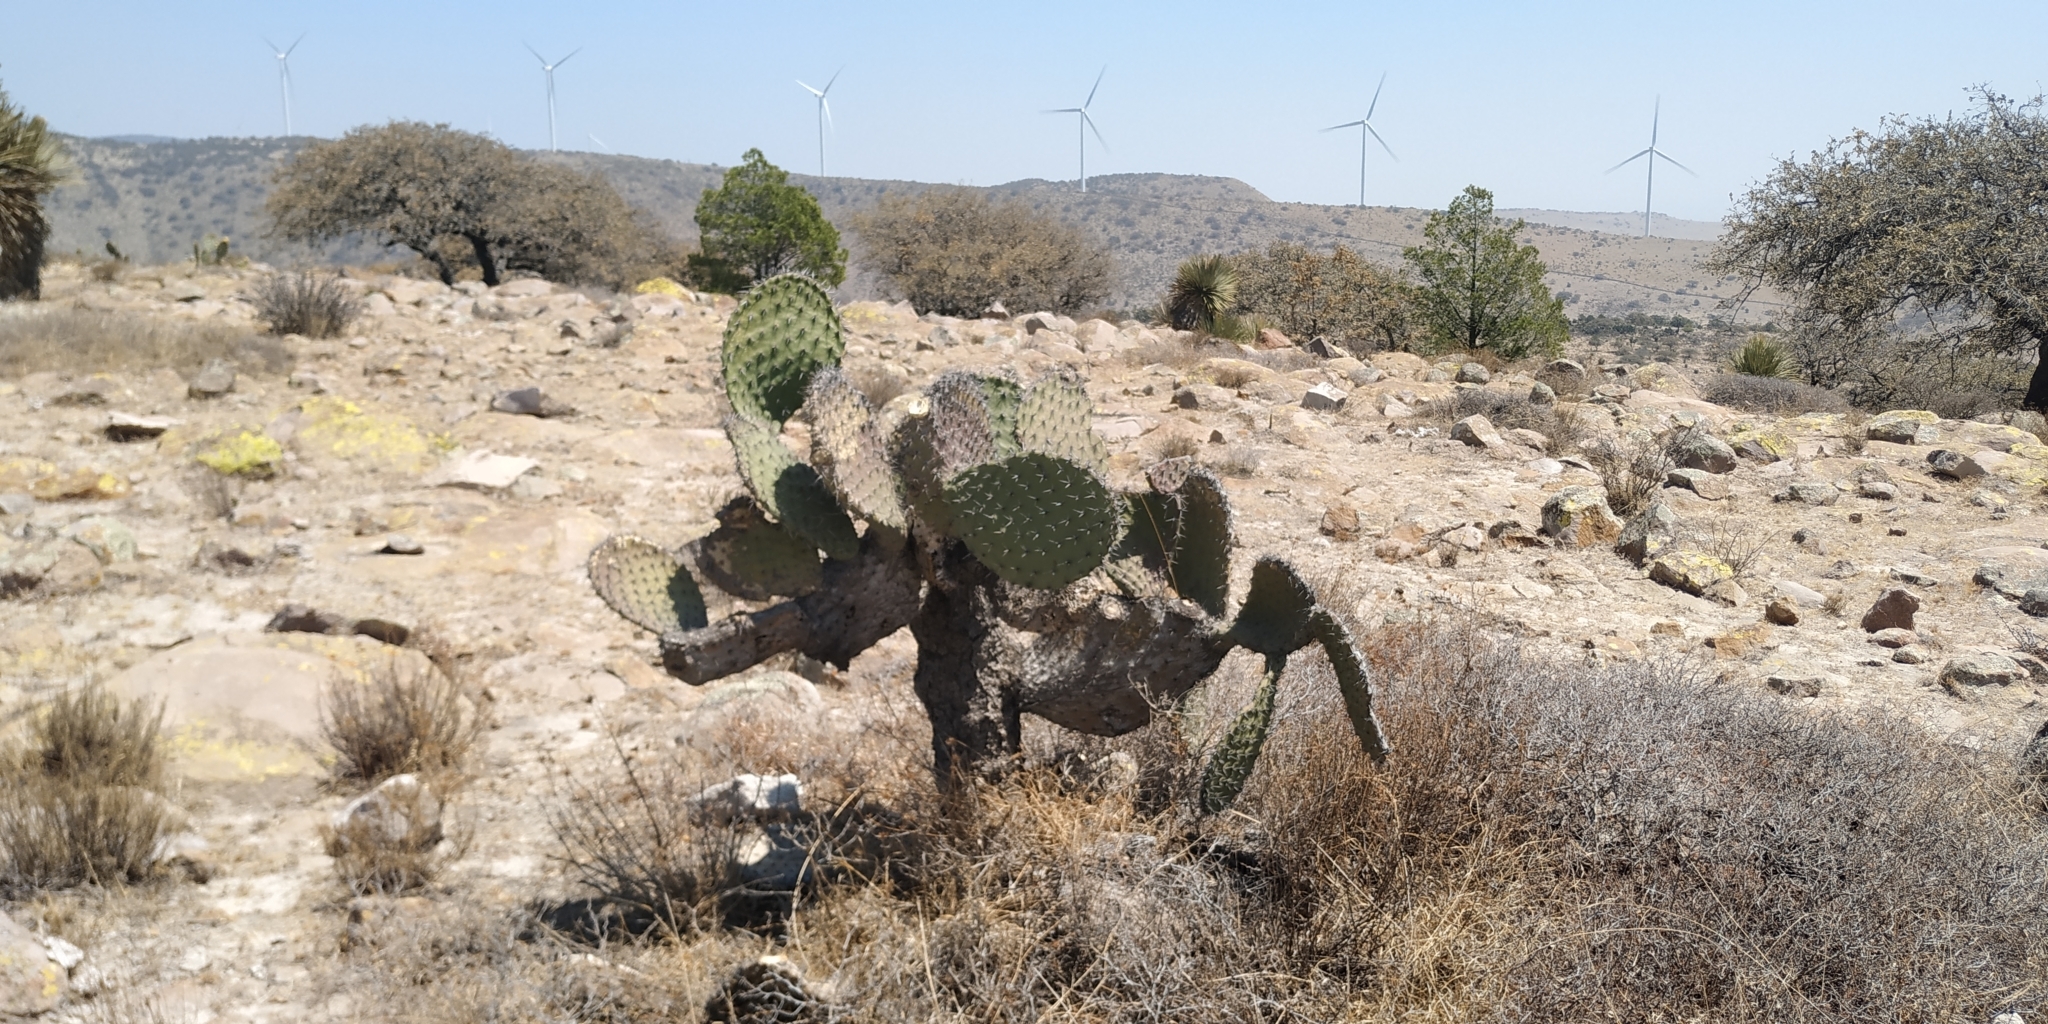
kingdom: Plantae
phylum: Tracheophyta
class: Magnoliopsida
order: Caryophyllales
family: Cactaceae
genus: Opuntia
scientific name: Opuntia streptacantha
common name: Gracemere-pear
